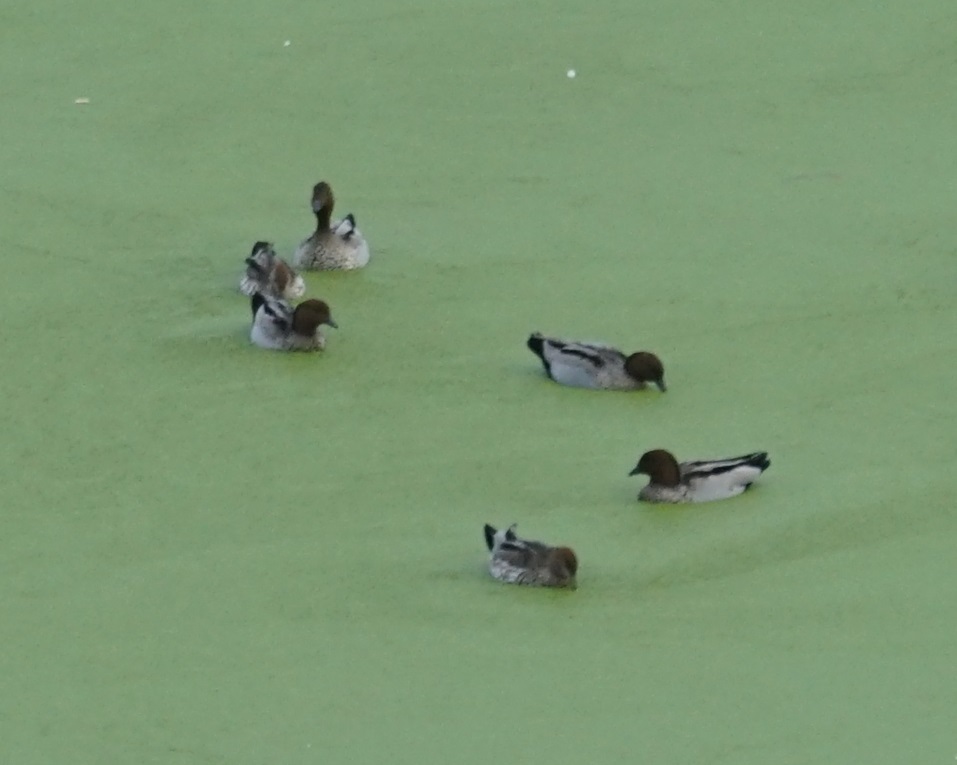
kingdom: Animalia
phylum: Chordata
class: Aves
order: Anseriformes
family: Anatidae
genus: Chenonetta
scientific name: Chenonetta jubata
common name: Maned duck
